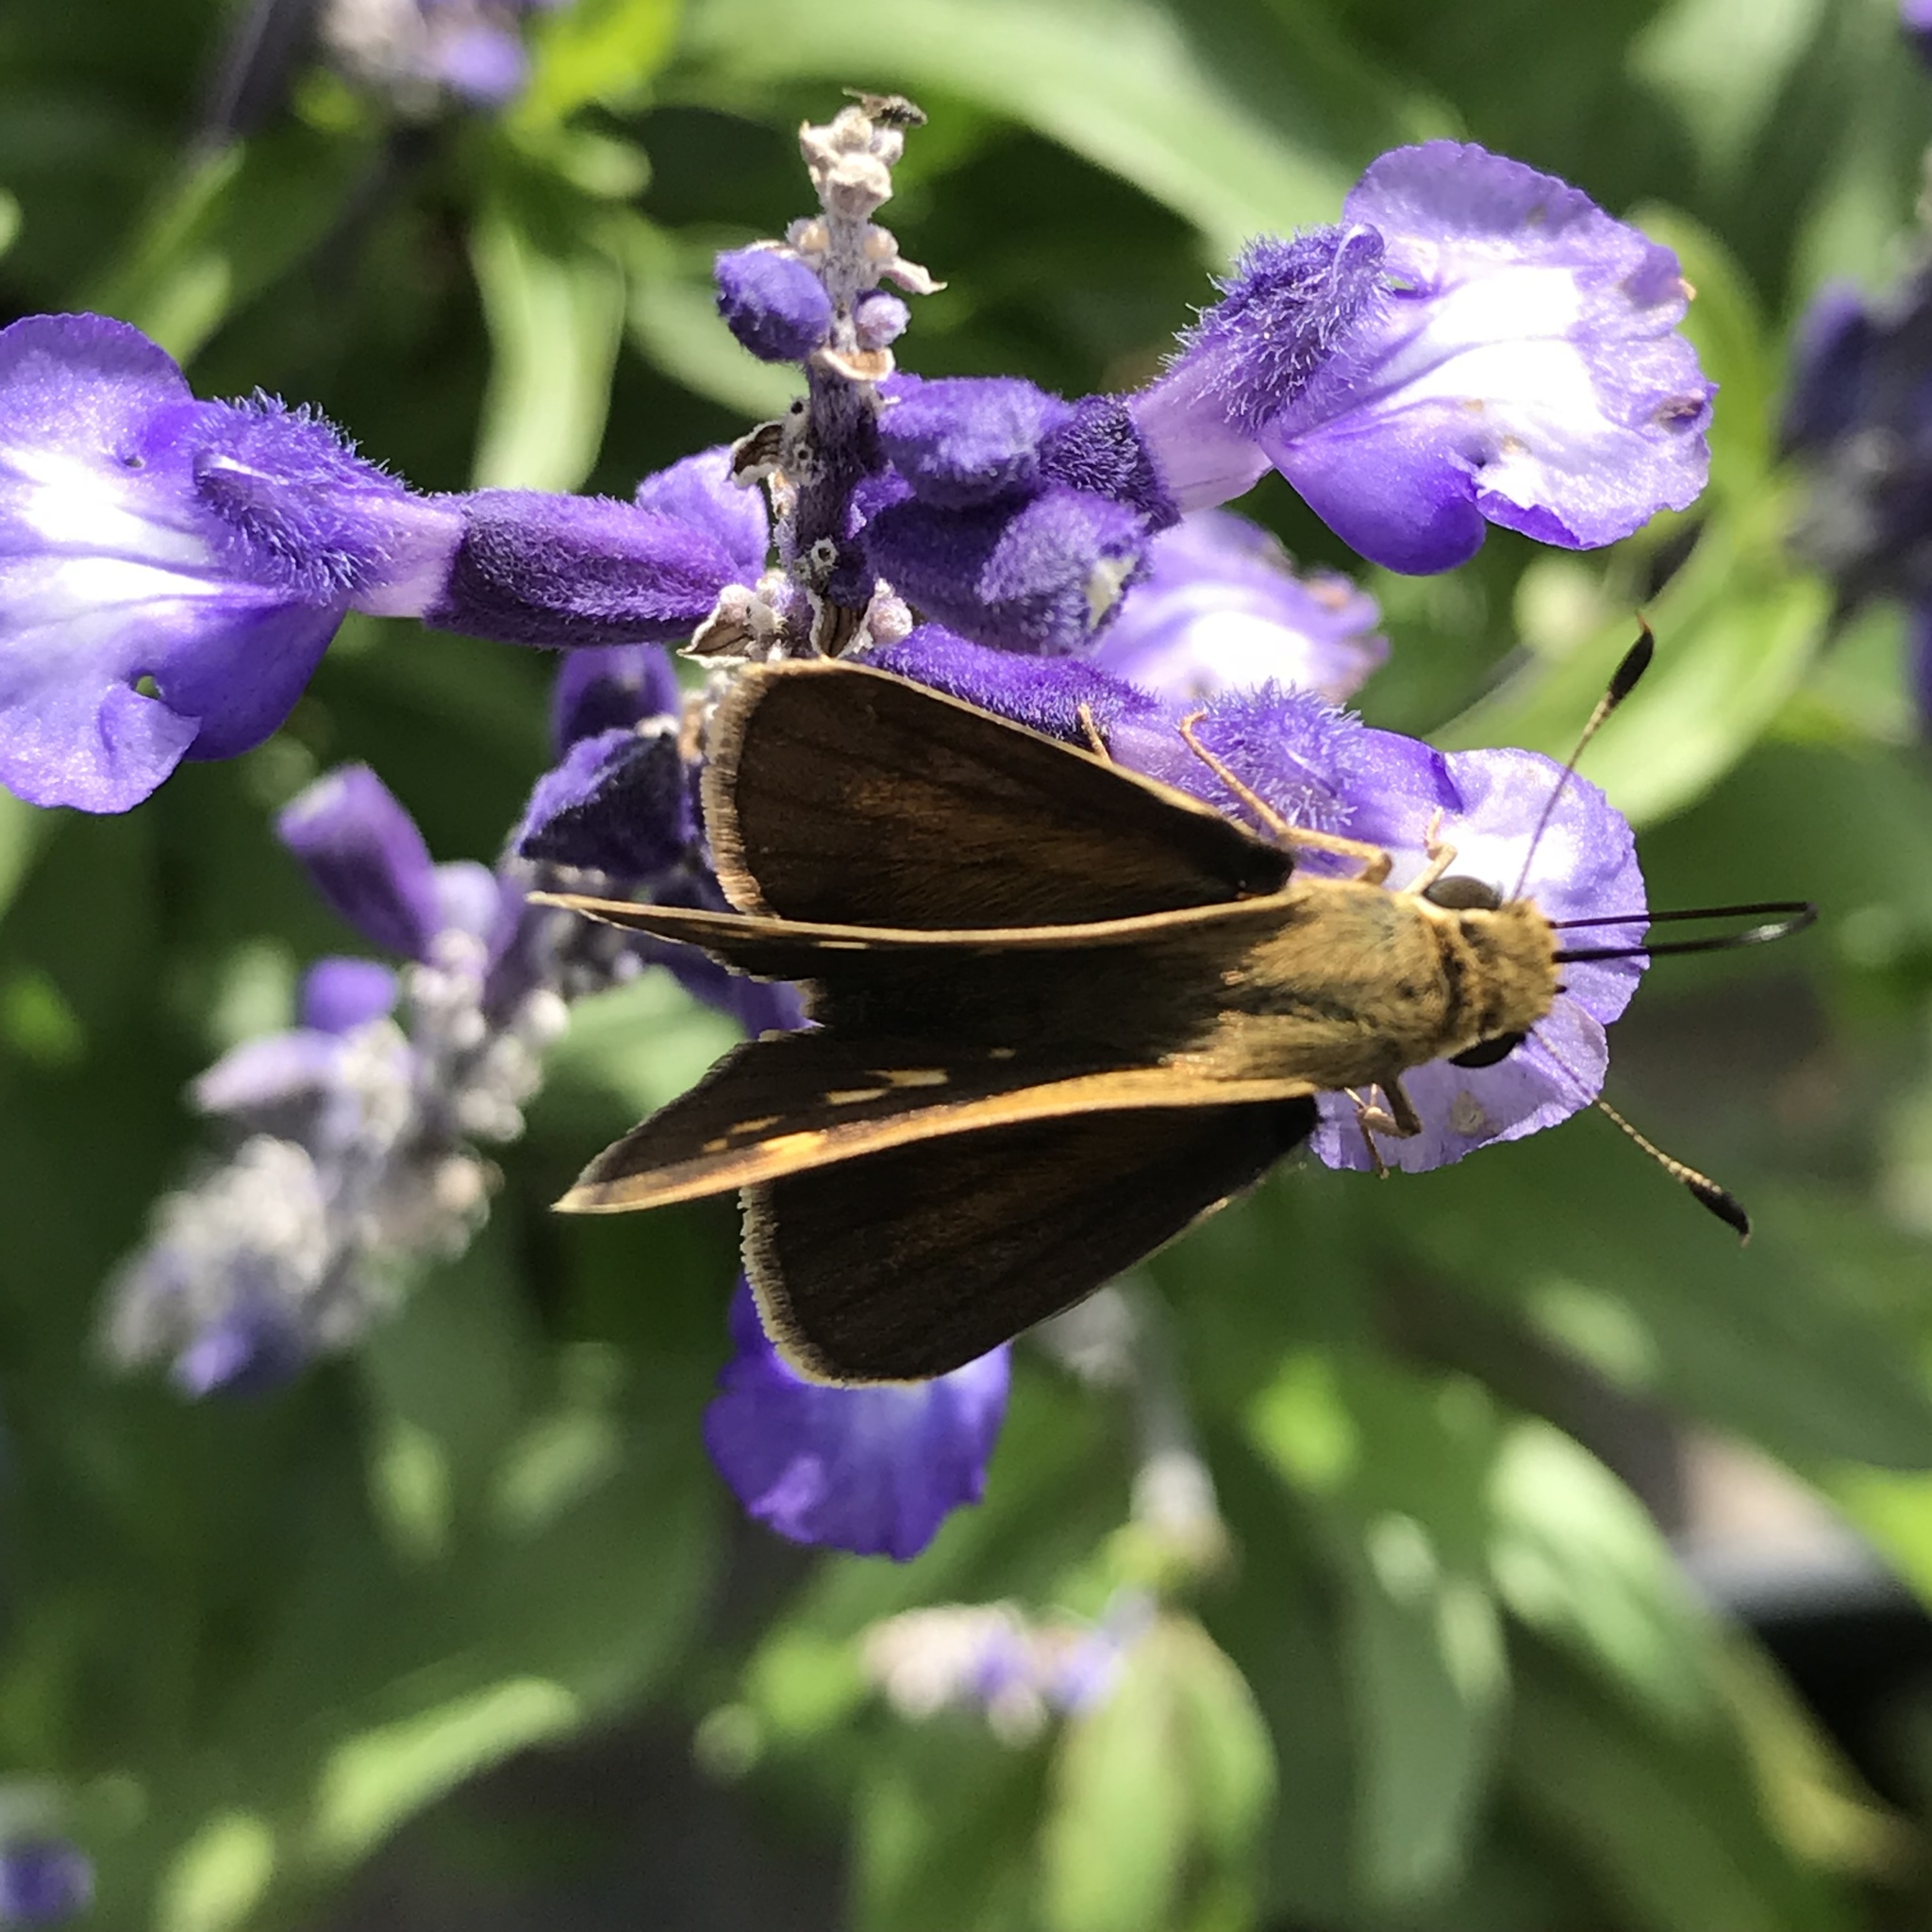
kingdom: Animalia
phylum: Arthropoda
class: Insecta
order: Lepidoptera
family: Hesperiidae
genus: Polites
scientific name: Polites vibex
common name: Whirlabout
